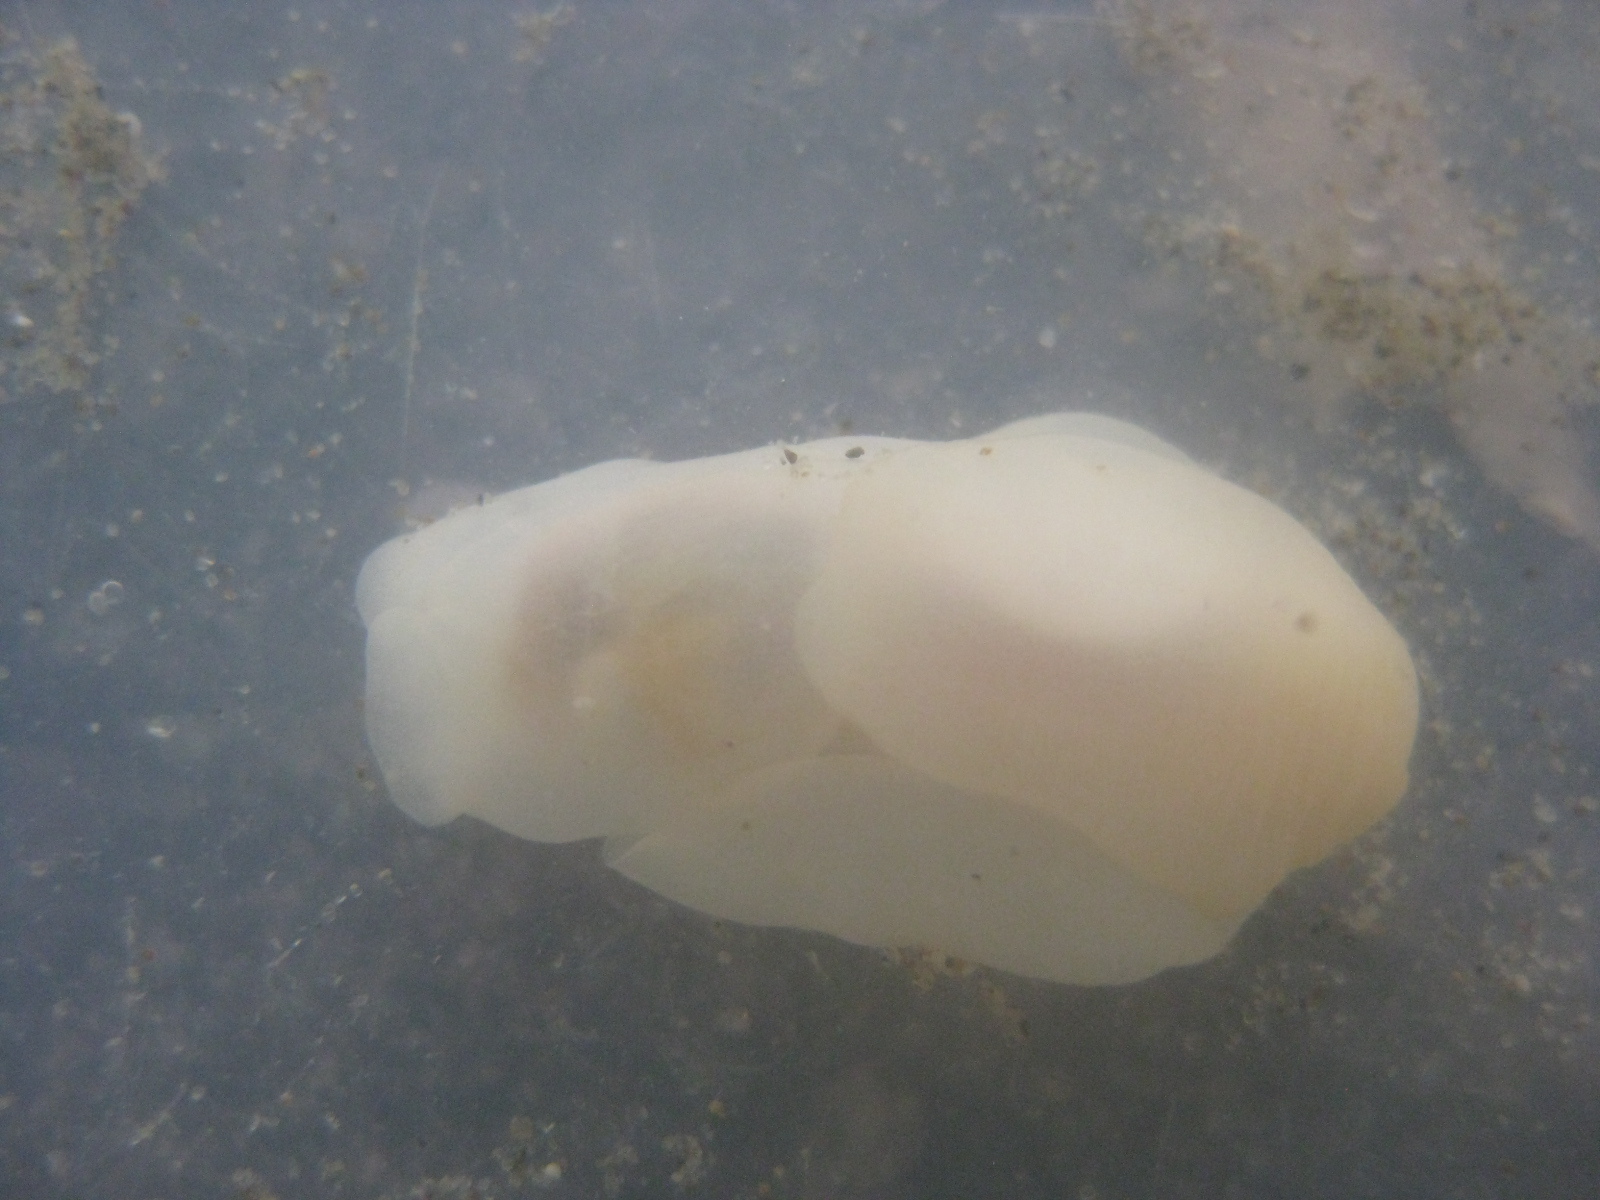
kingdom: Animalia
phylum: Mollusca
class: Gastropoda
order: Cephalaspidea
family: Philinidae
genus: Philine
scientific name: Philine
